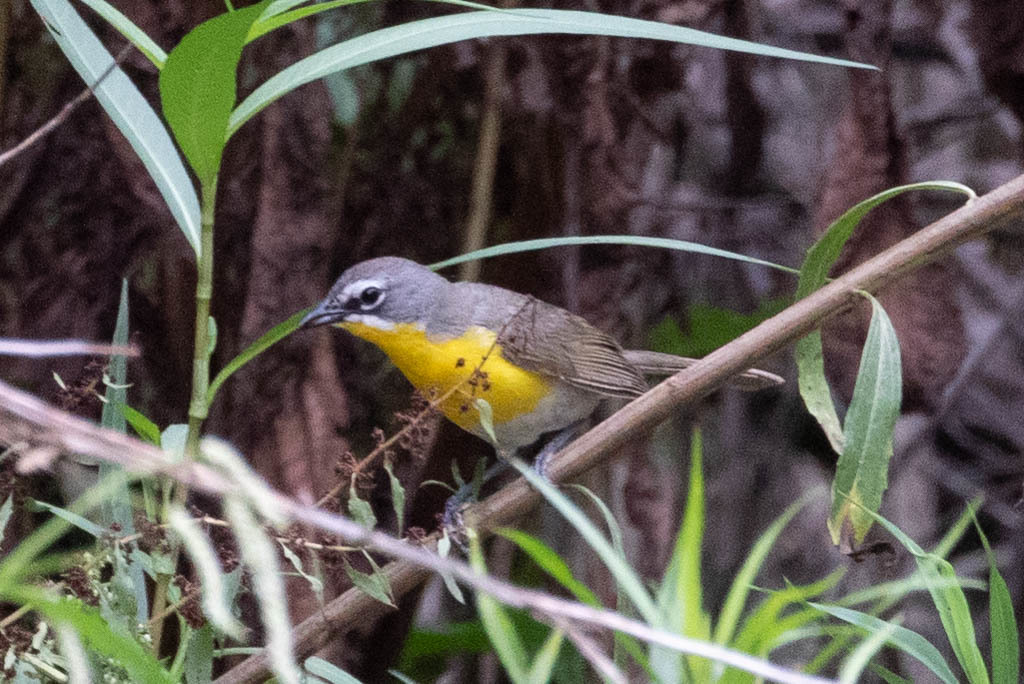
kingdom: Animalia
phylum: Chordata
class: Aves
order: Passeriformes
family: Parulidae
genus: Icteria
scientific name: Icteria virens
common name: Yellow-breasted chat
